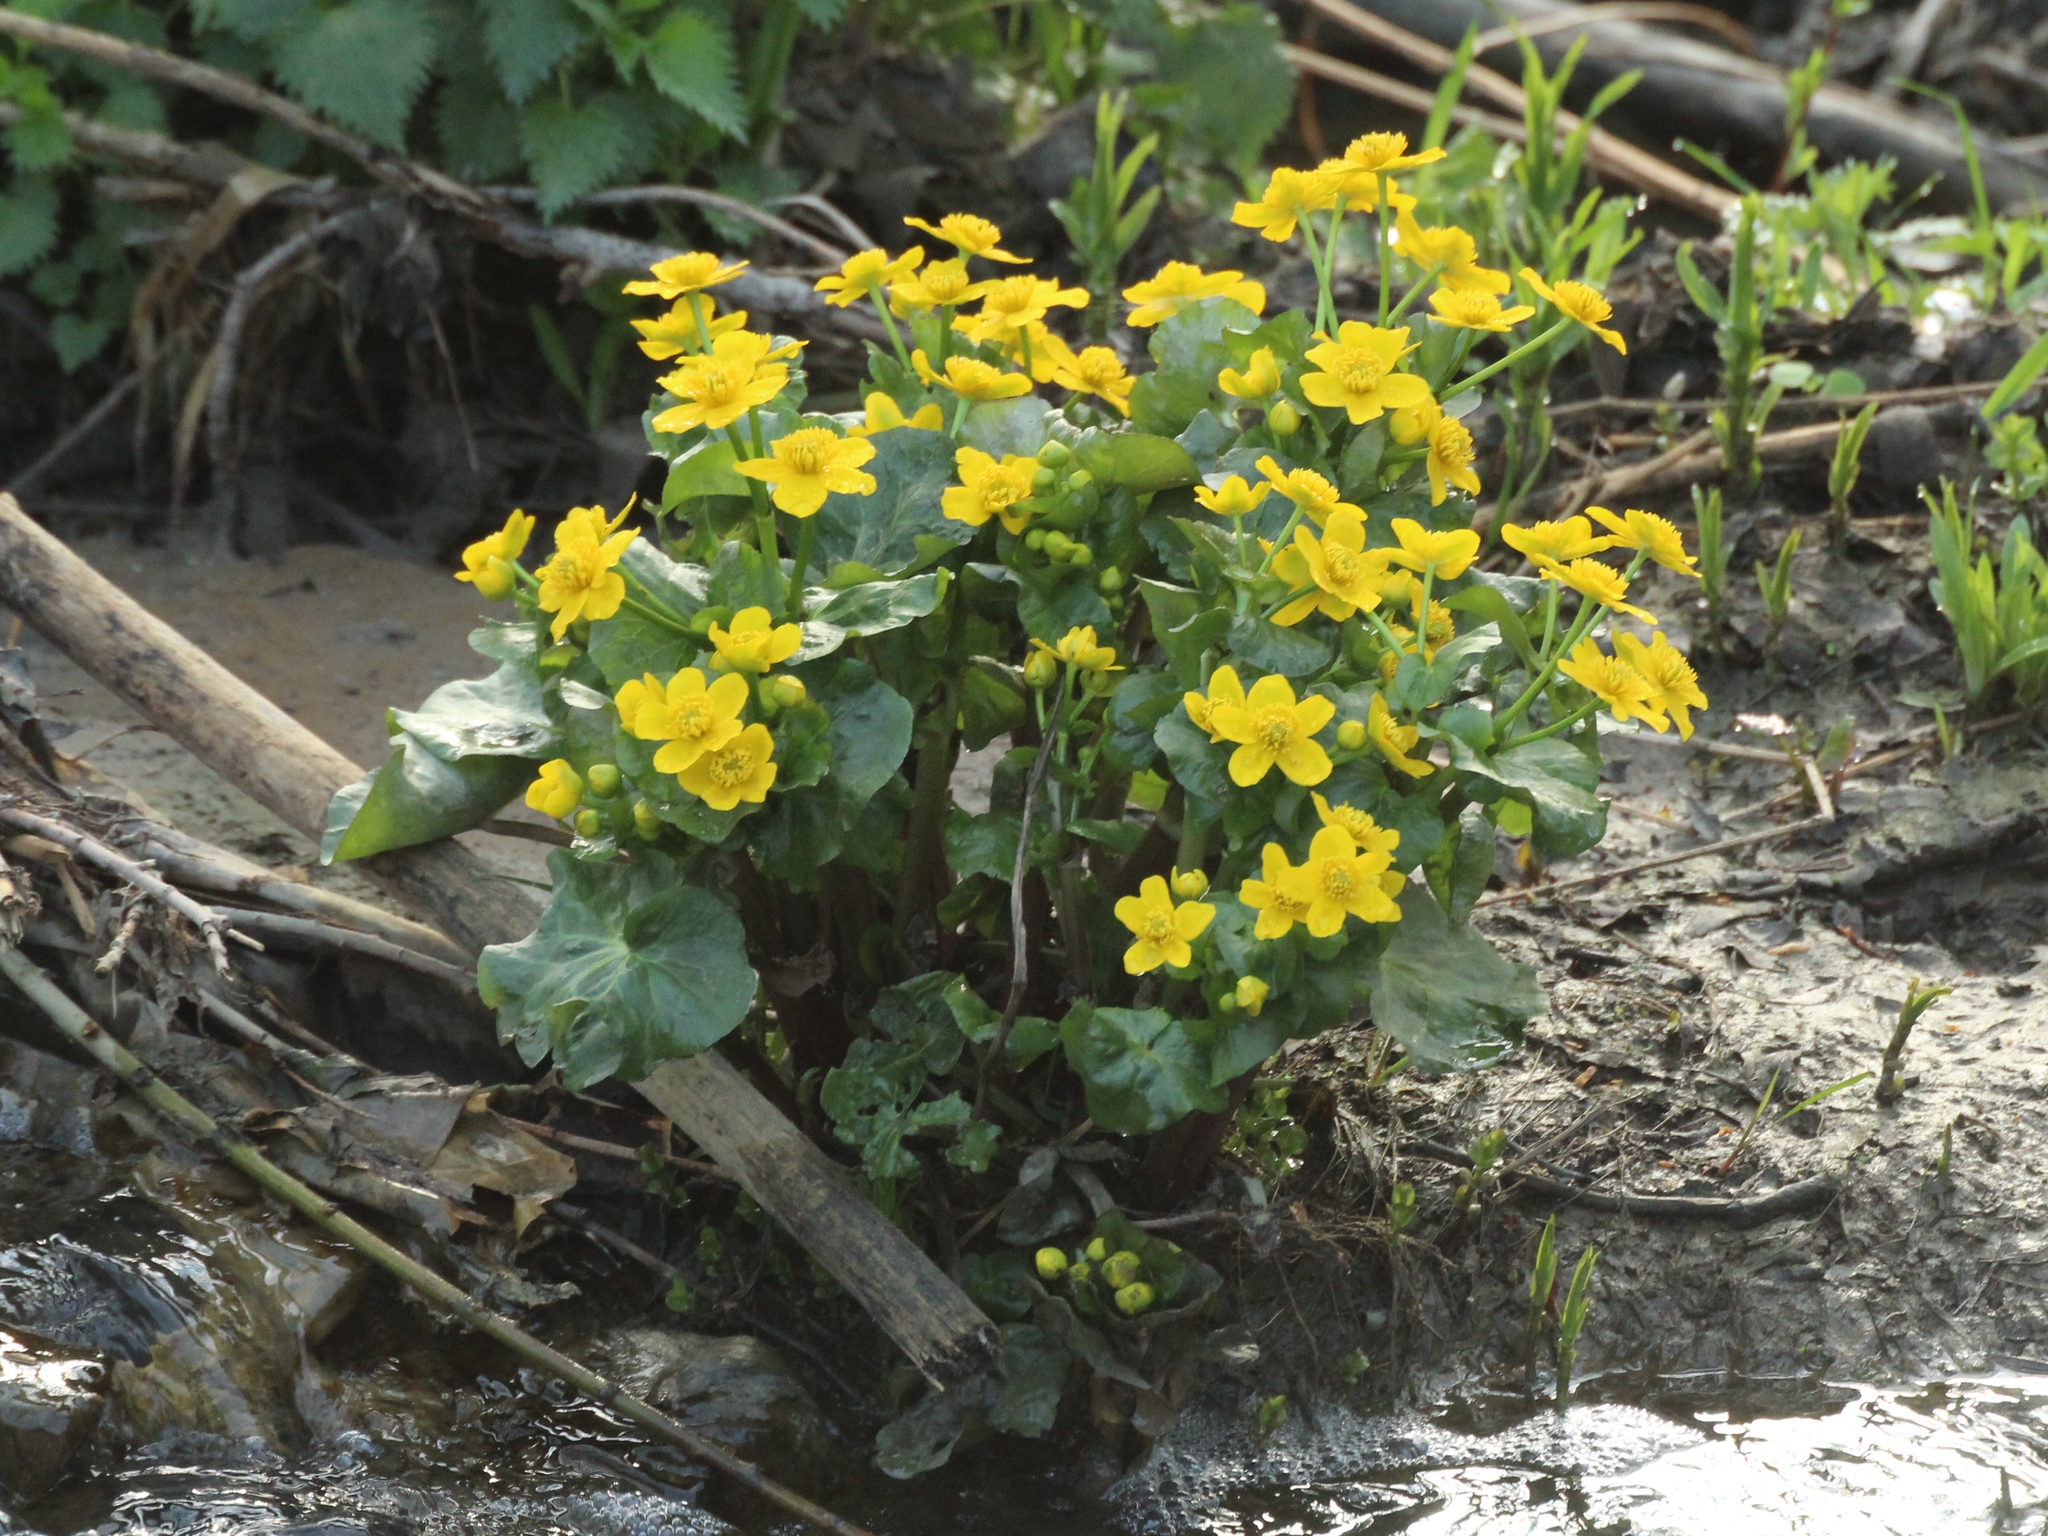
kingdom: Plantae
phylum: Tracheophyta
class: Magnoliopsida
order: Ranunculales
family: Ranunculaceae
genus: Caltha
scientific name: Caltha palustris
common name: Marsh marigold
